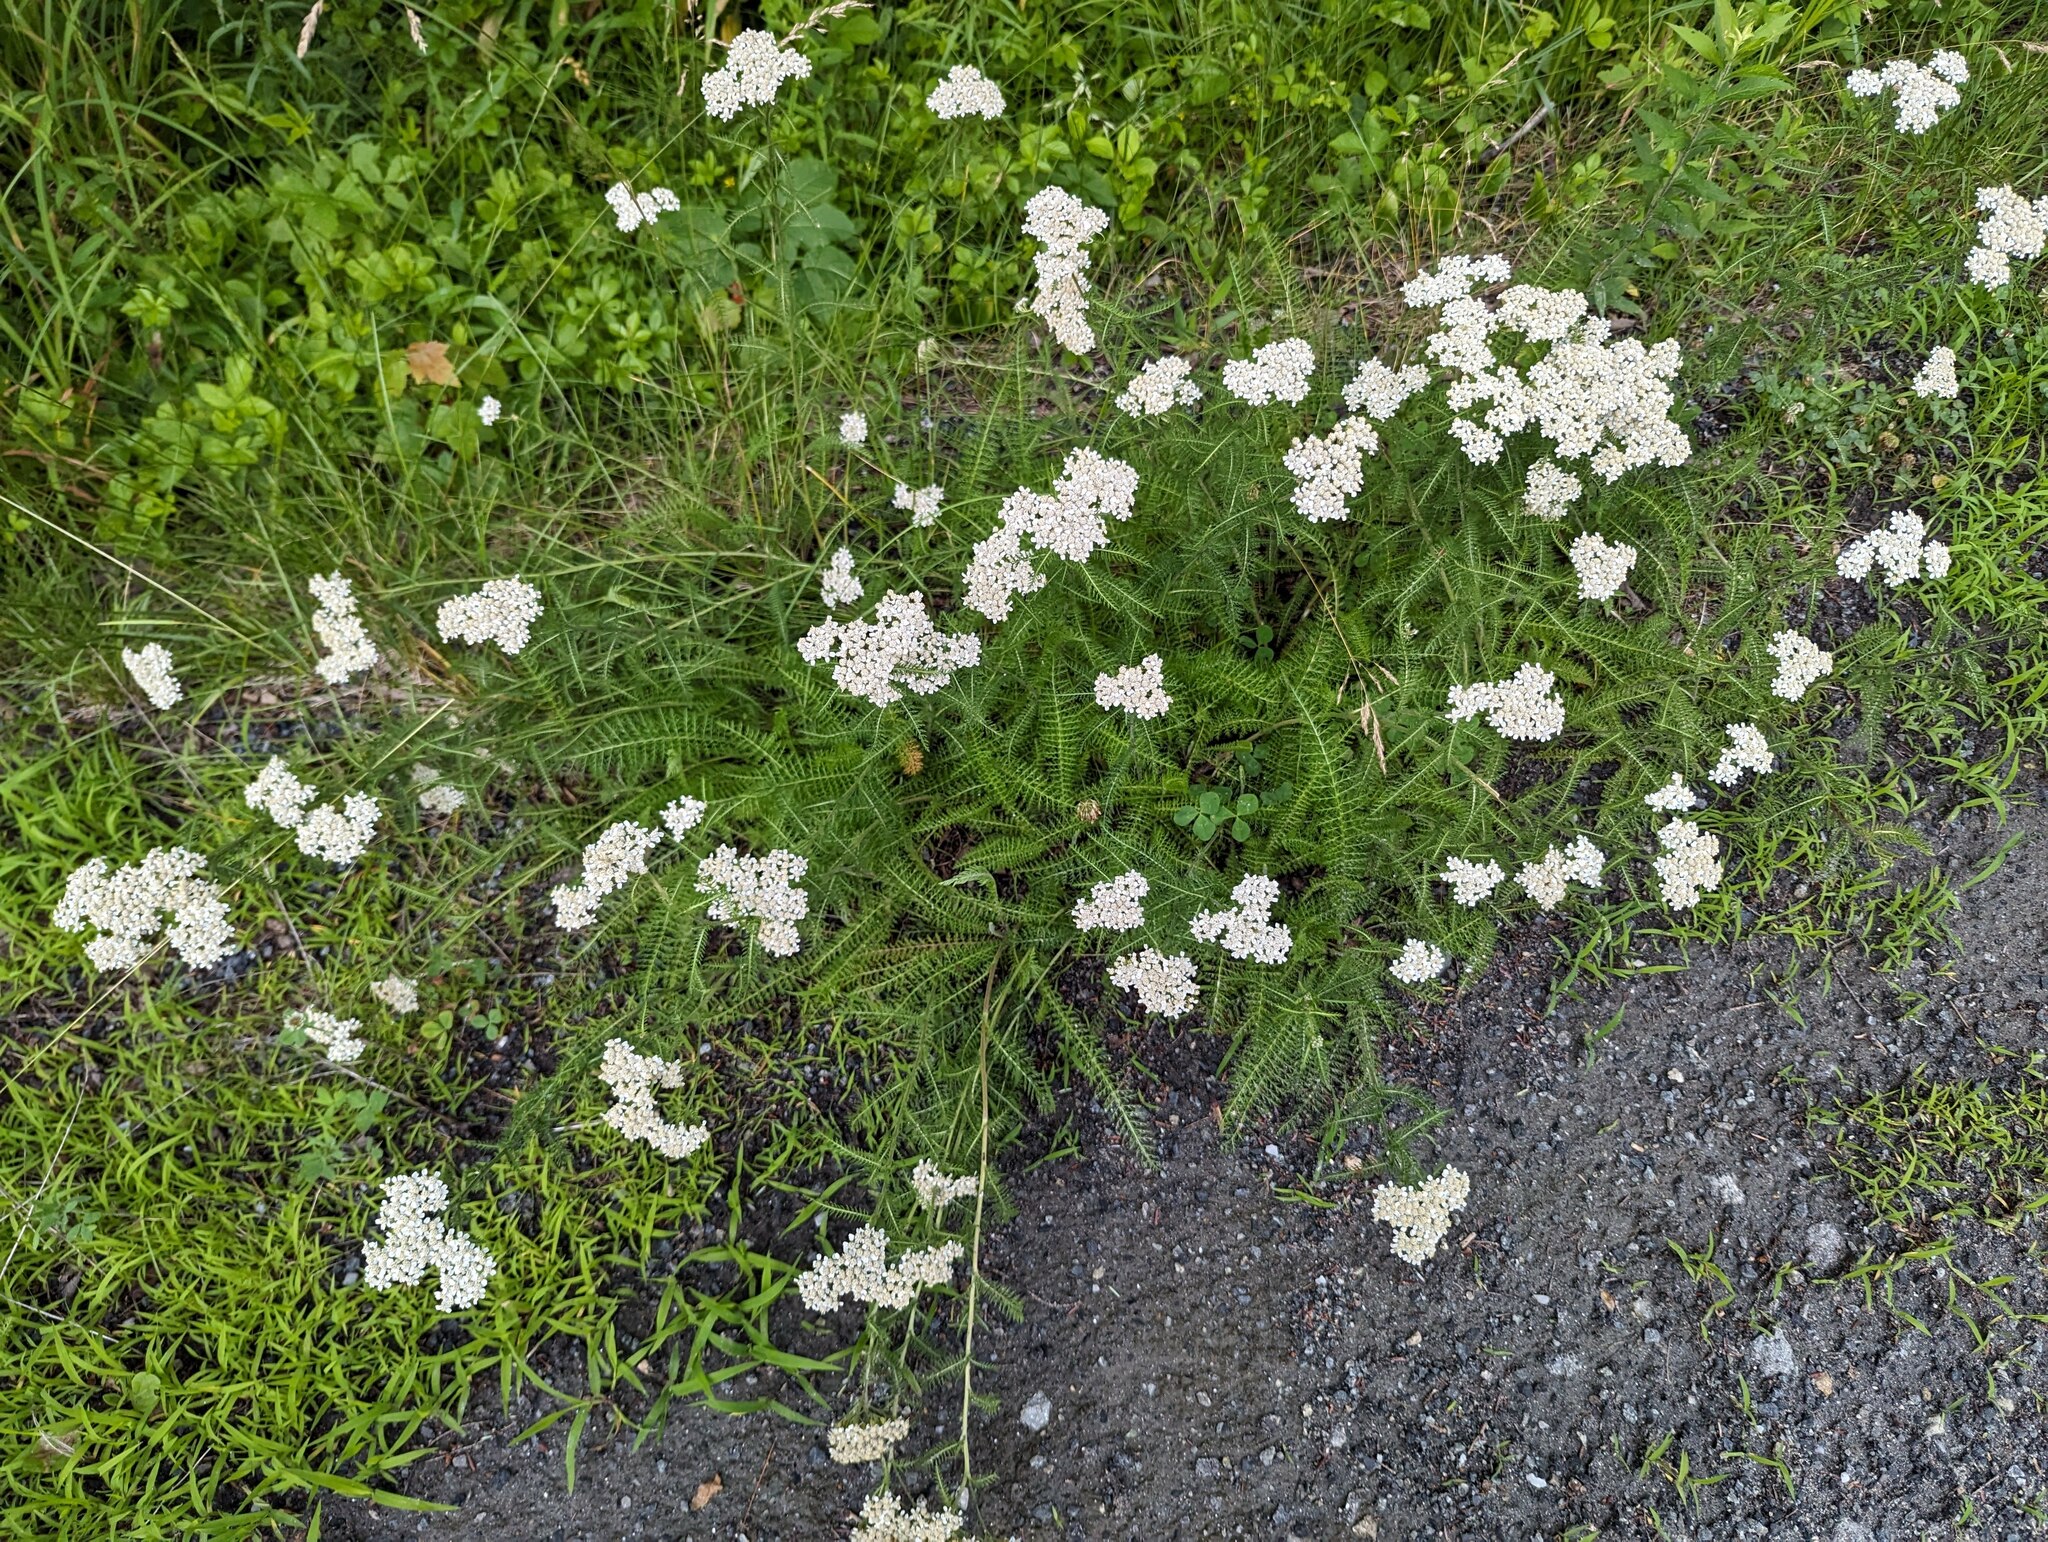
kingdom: Plantae
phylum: Tracheophyta
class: Magnoliopsida
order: Asterales
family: Asteraceae
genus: Achillea
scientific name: Achillea millefolium
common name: Yarrow
